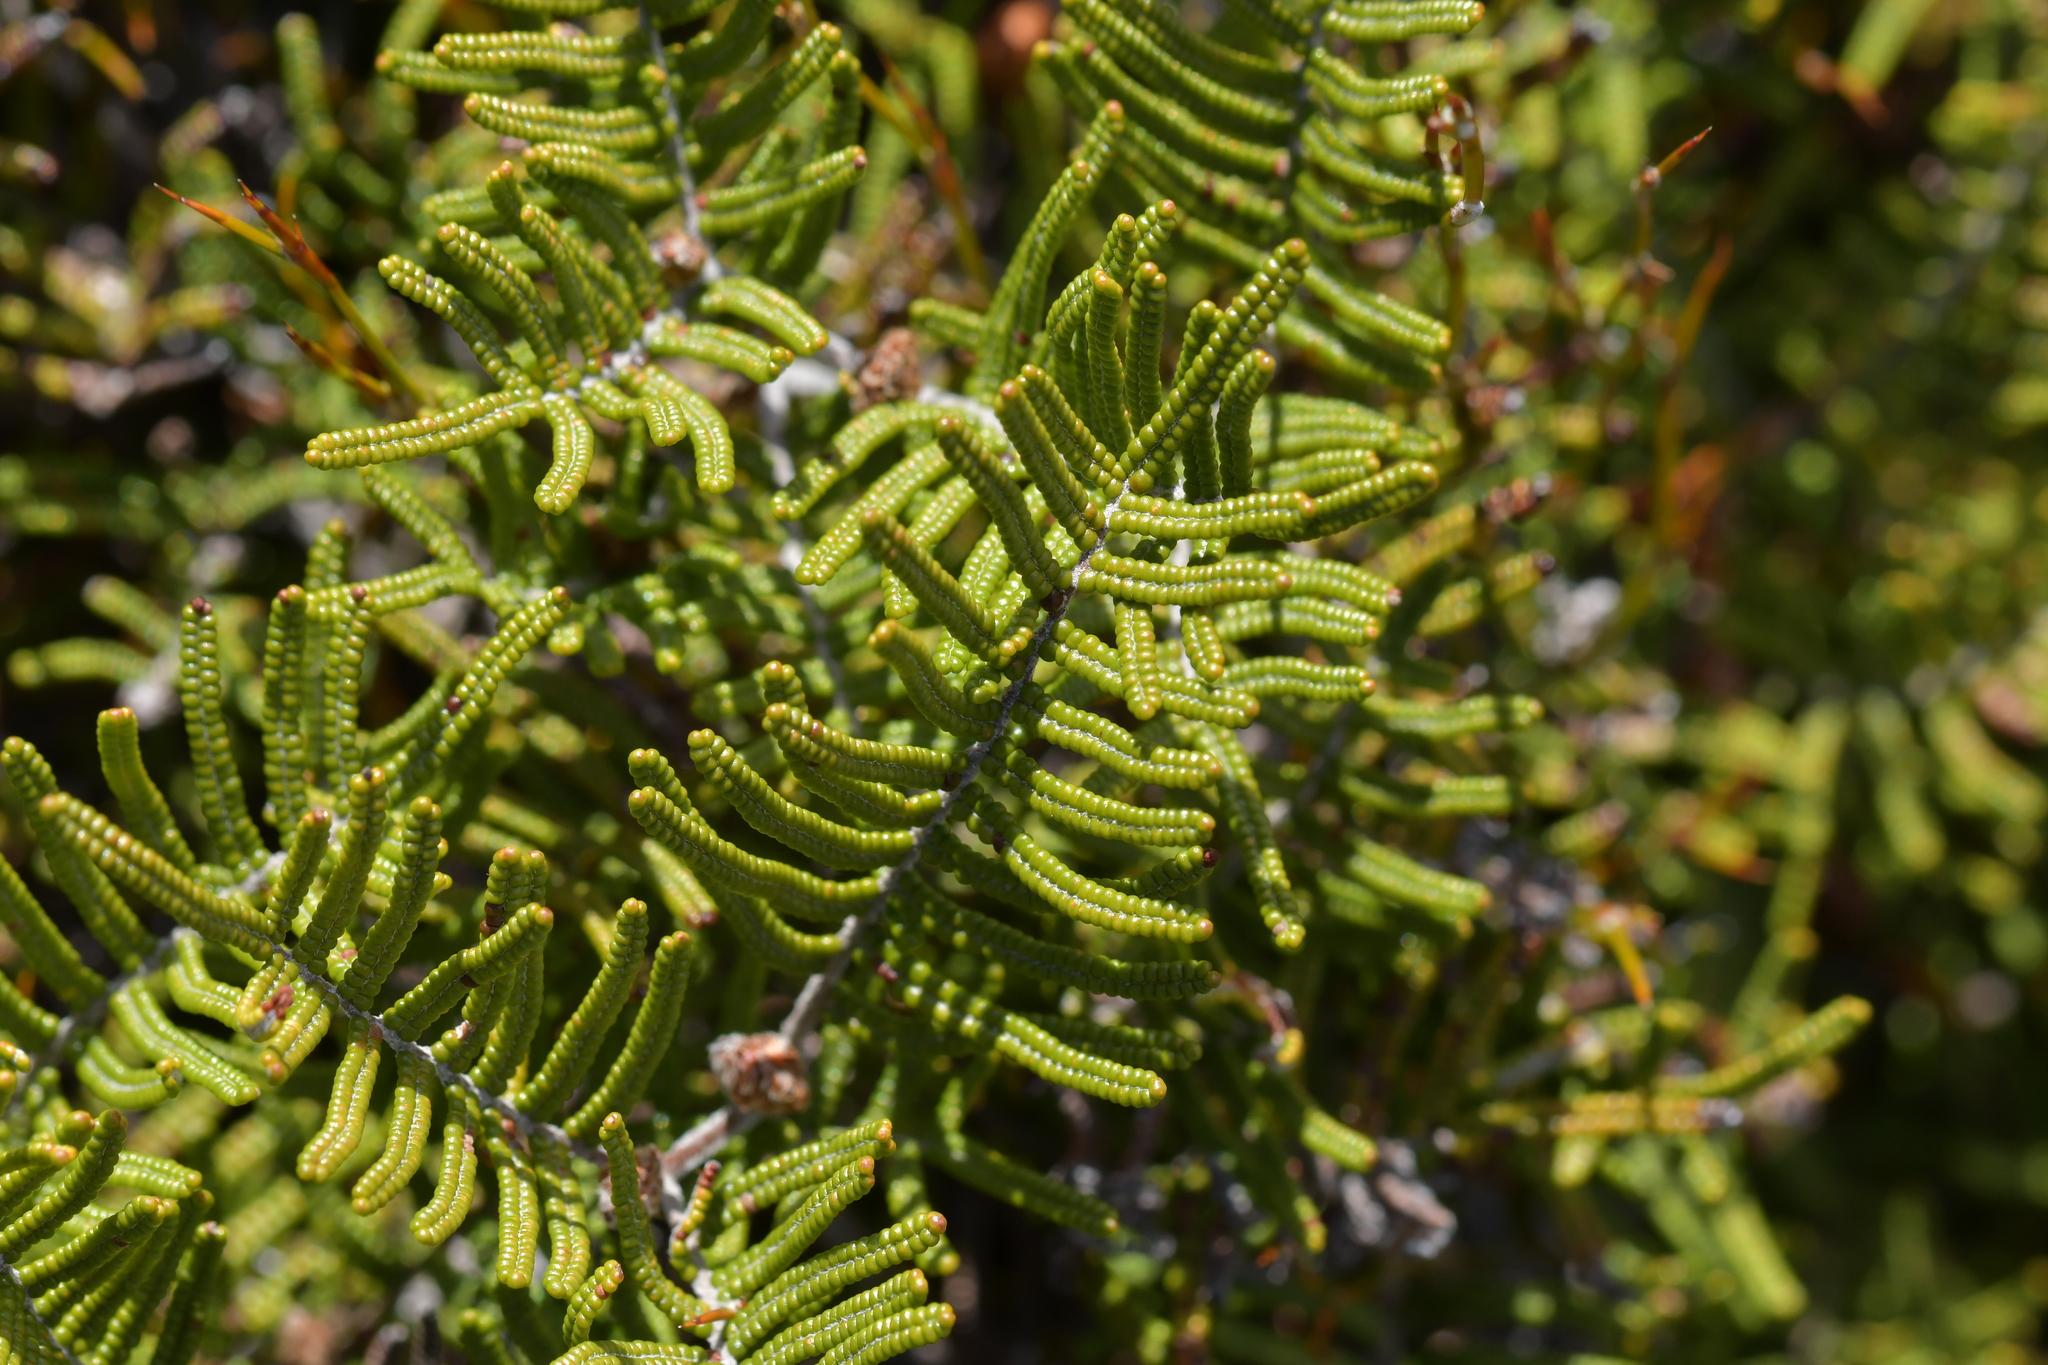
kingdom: Plantae
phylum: Tracheophyta
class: Polypodiopsida
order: Gleicheniales
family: Gleicheniaceae
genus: Gleichenia
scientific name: Gleichenia alpina
